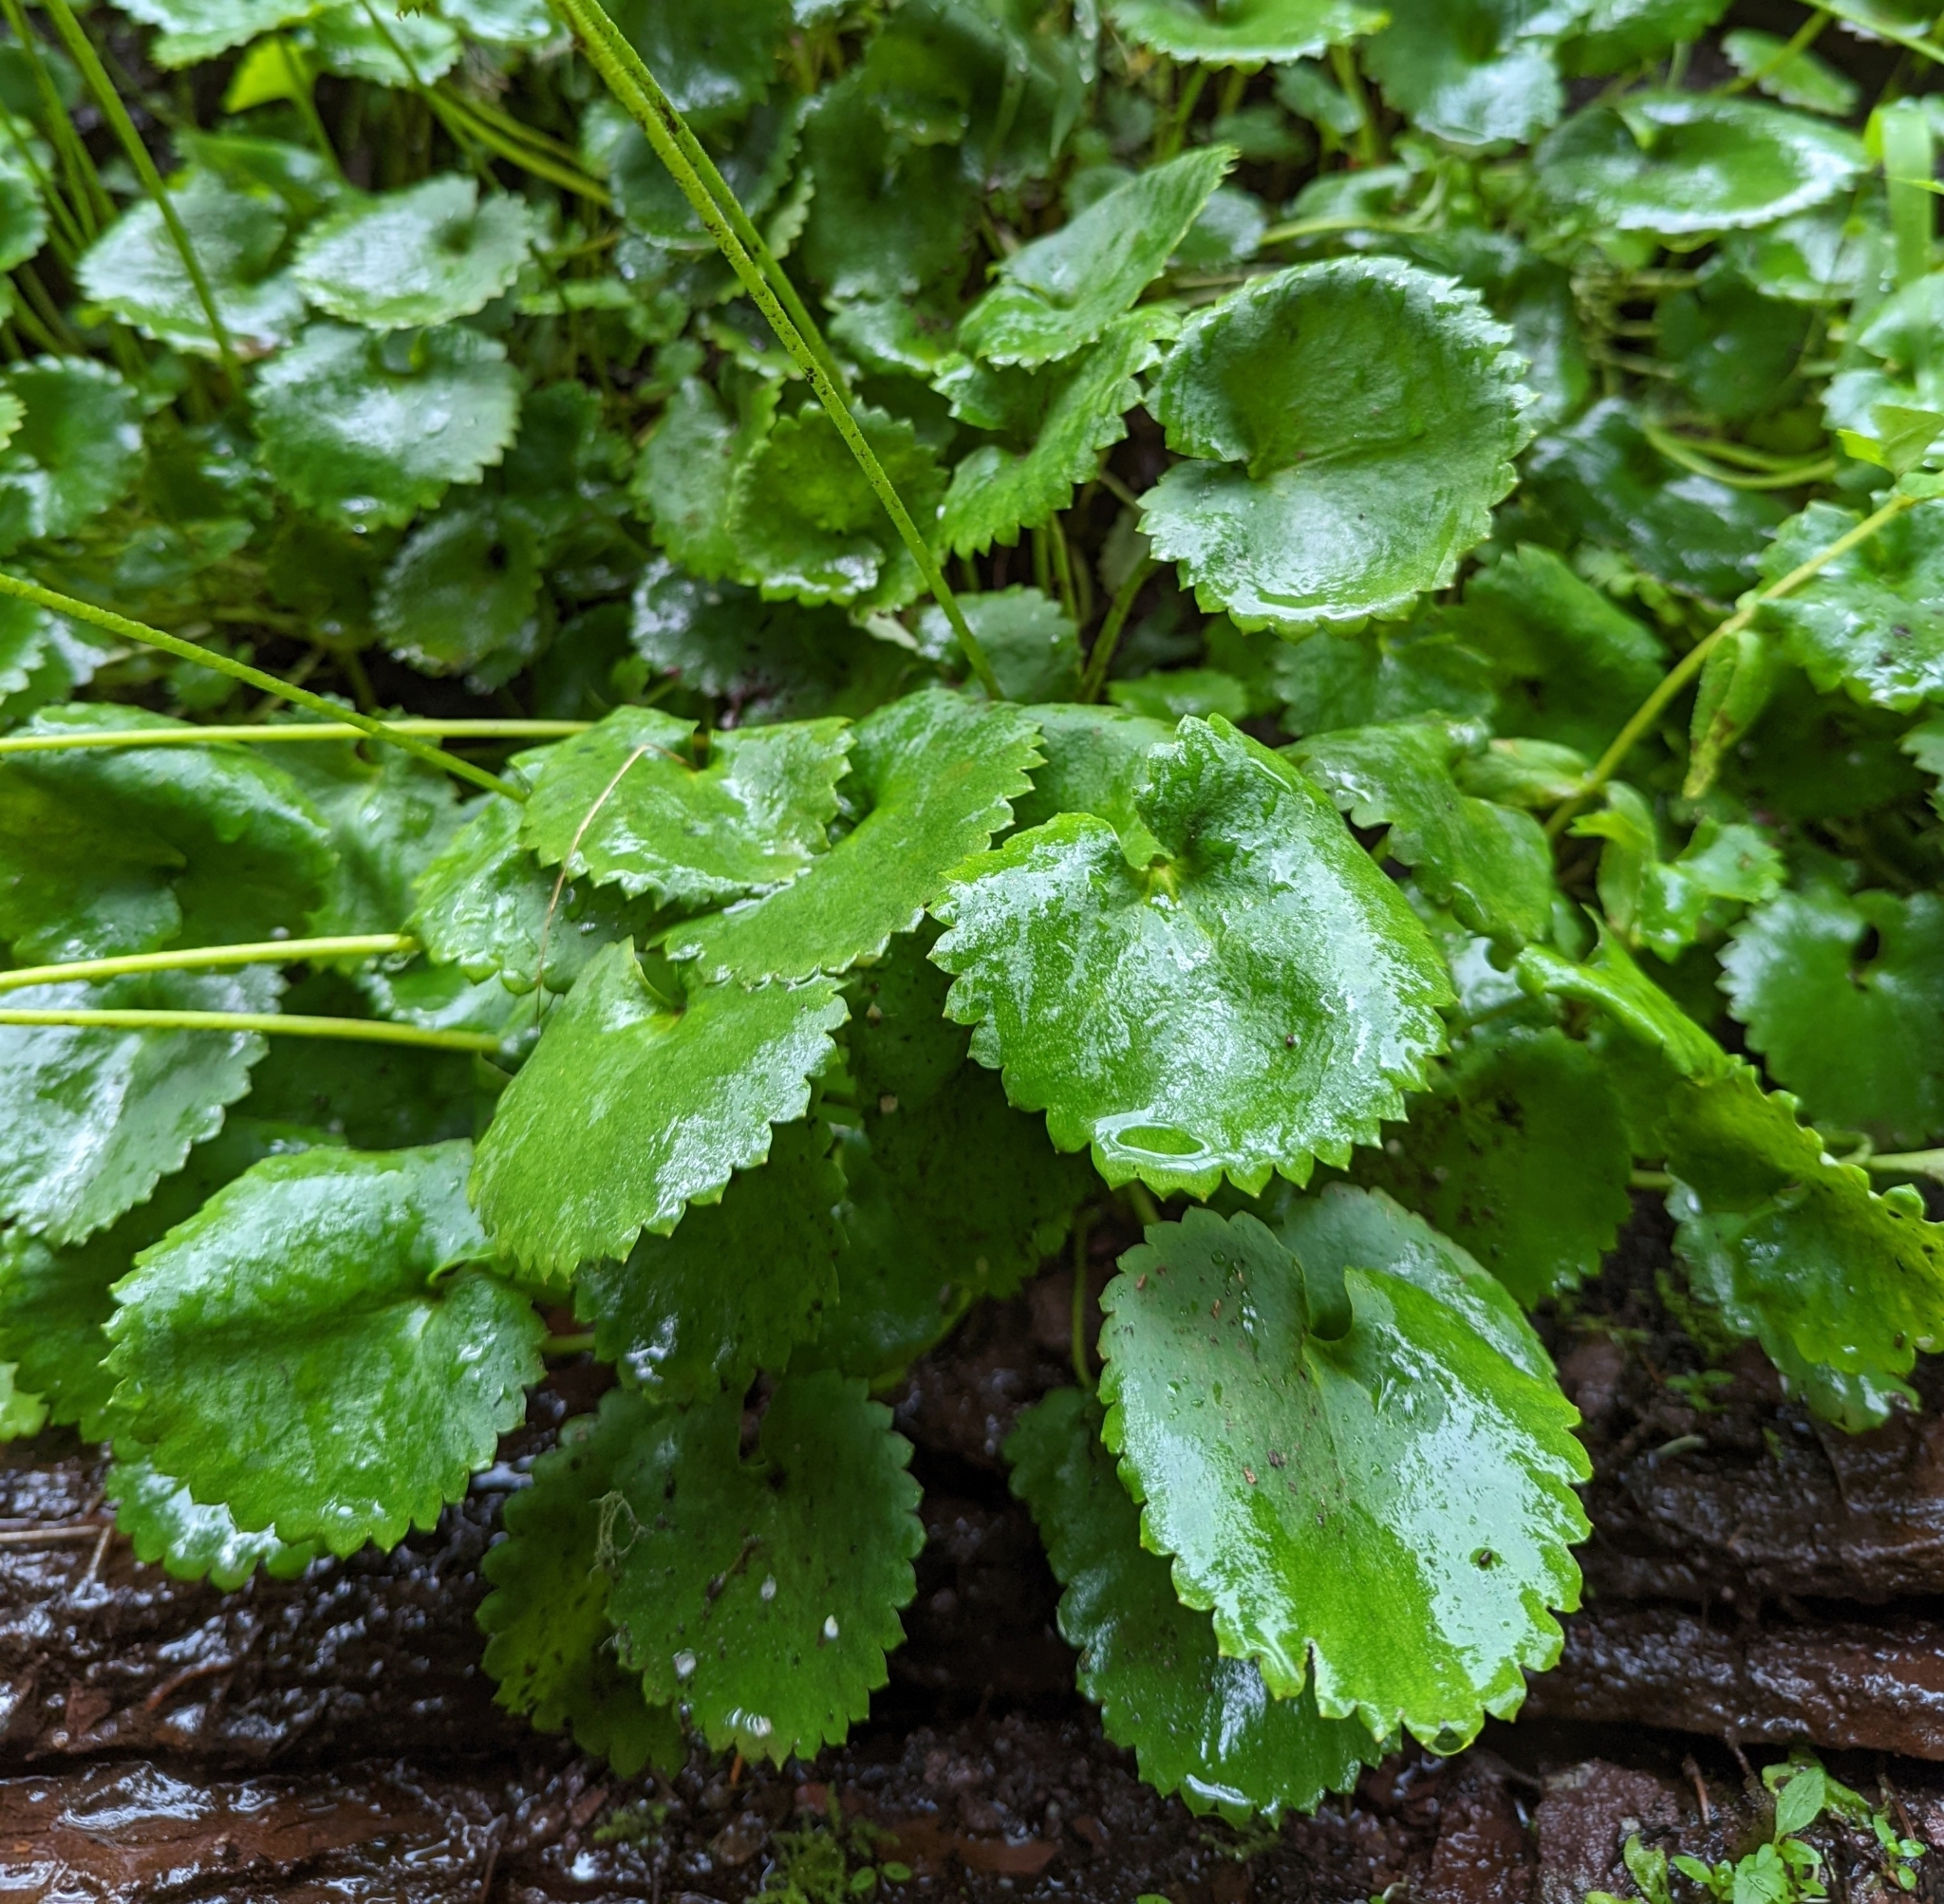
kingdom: Plantae
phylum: Tracheophyta
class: Magnoliopsida
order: Saxifragales
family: Saxifragaceae
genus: Micranthes
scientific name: Micranthes odontoloma
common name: Brook saxifrage
